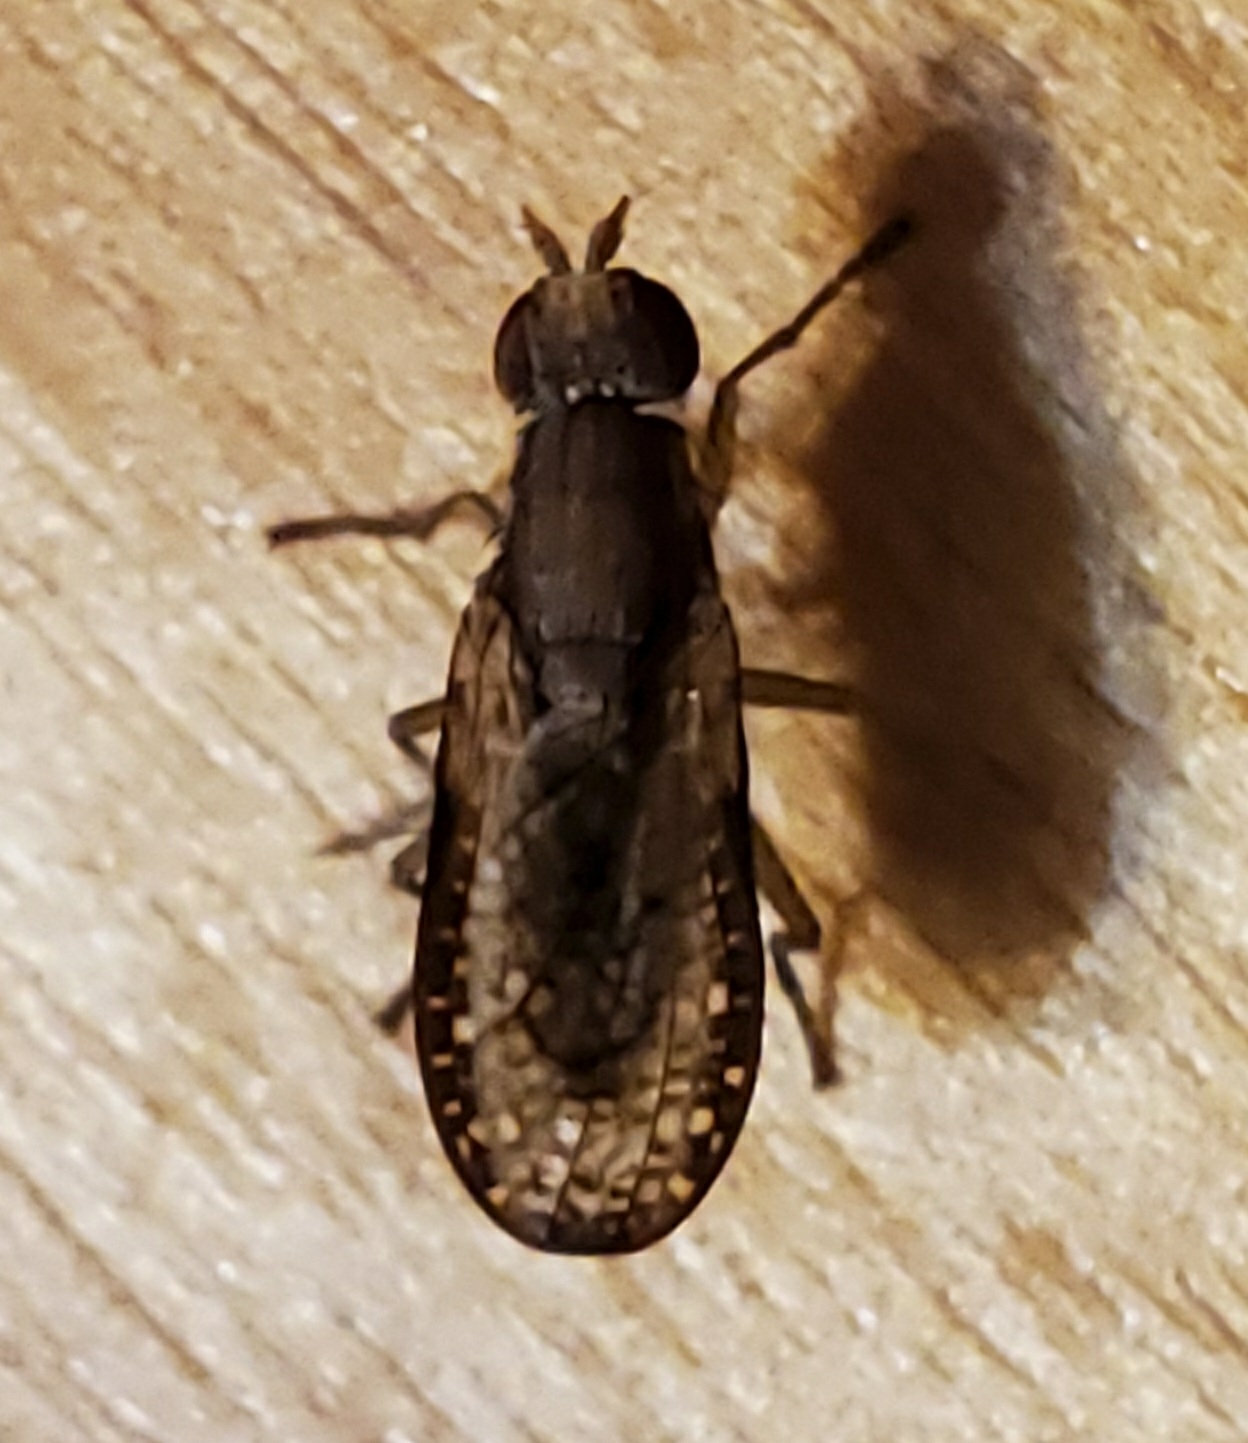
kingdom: Animalia
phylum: Arthropoda
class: Insecta
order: Diptera
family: Sciomyzidae
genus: Trypetoptera
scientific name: Trypetoptera canadensis
